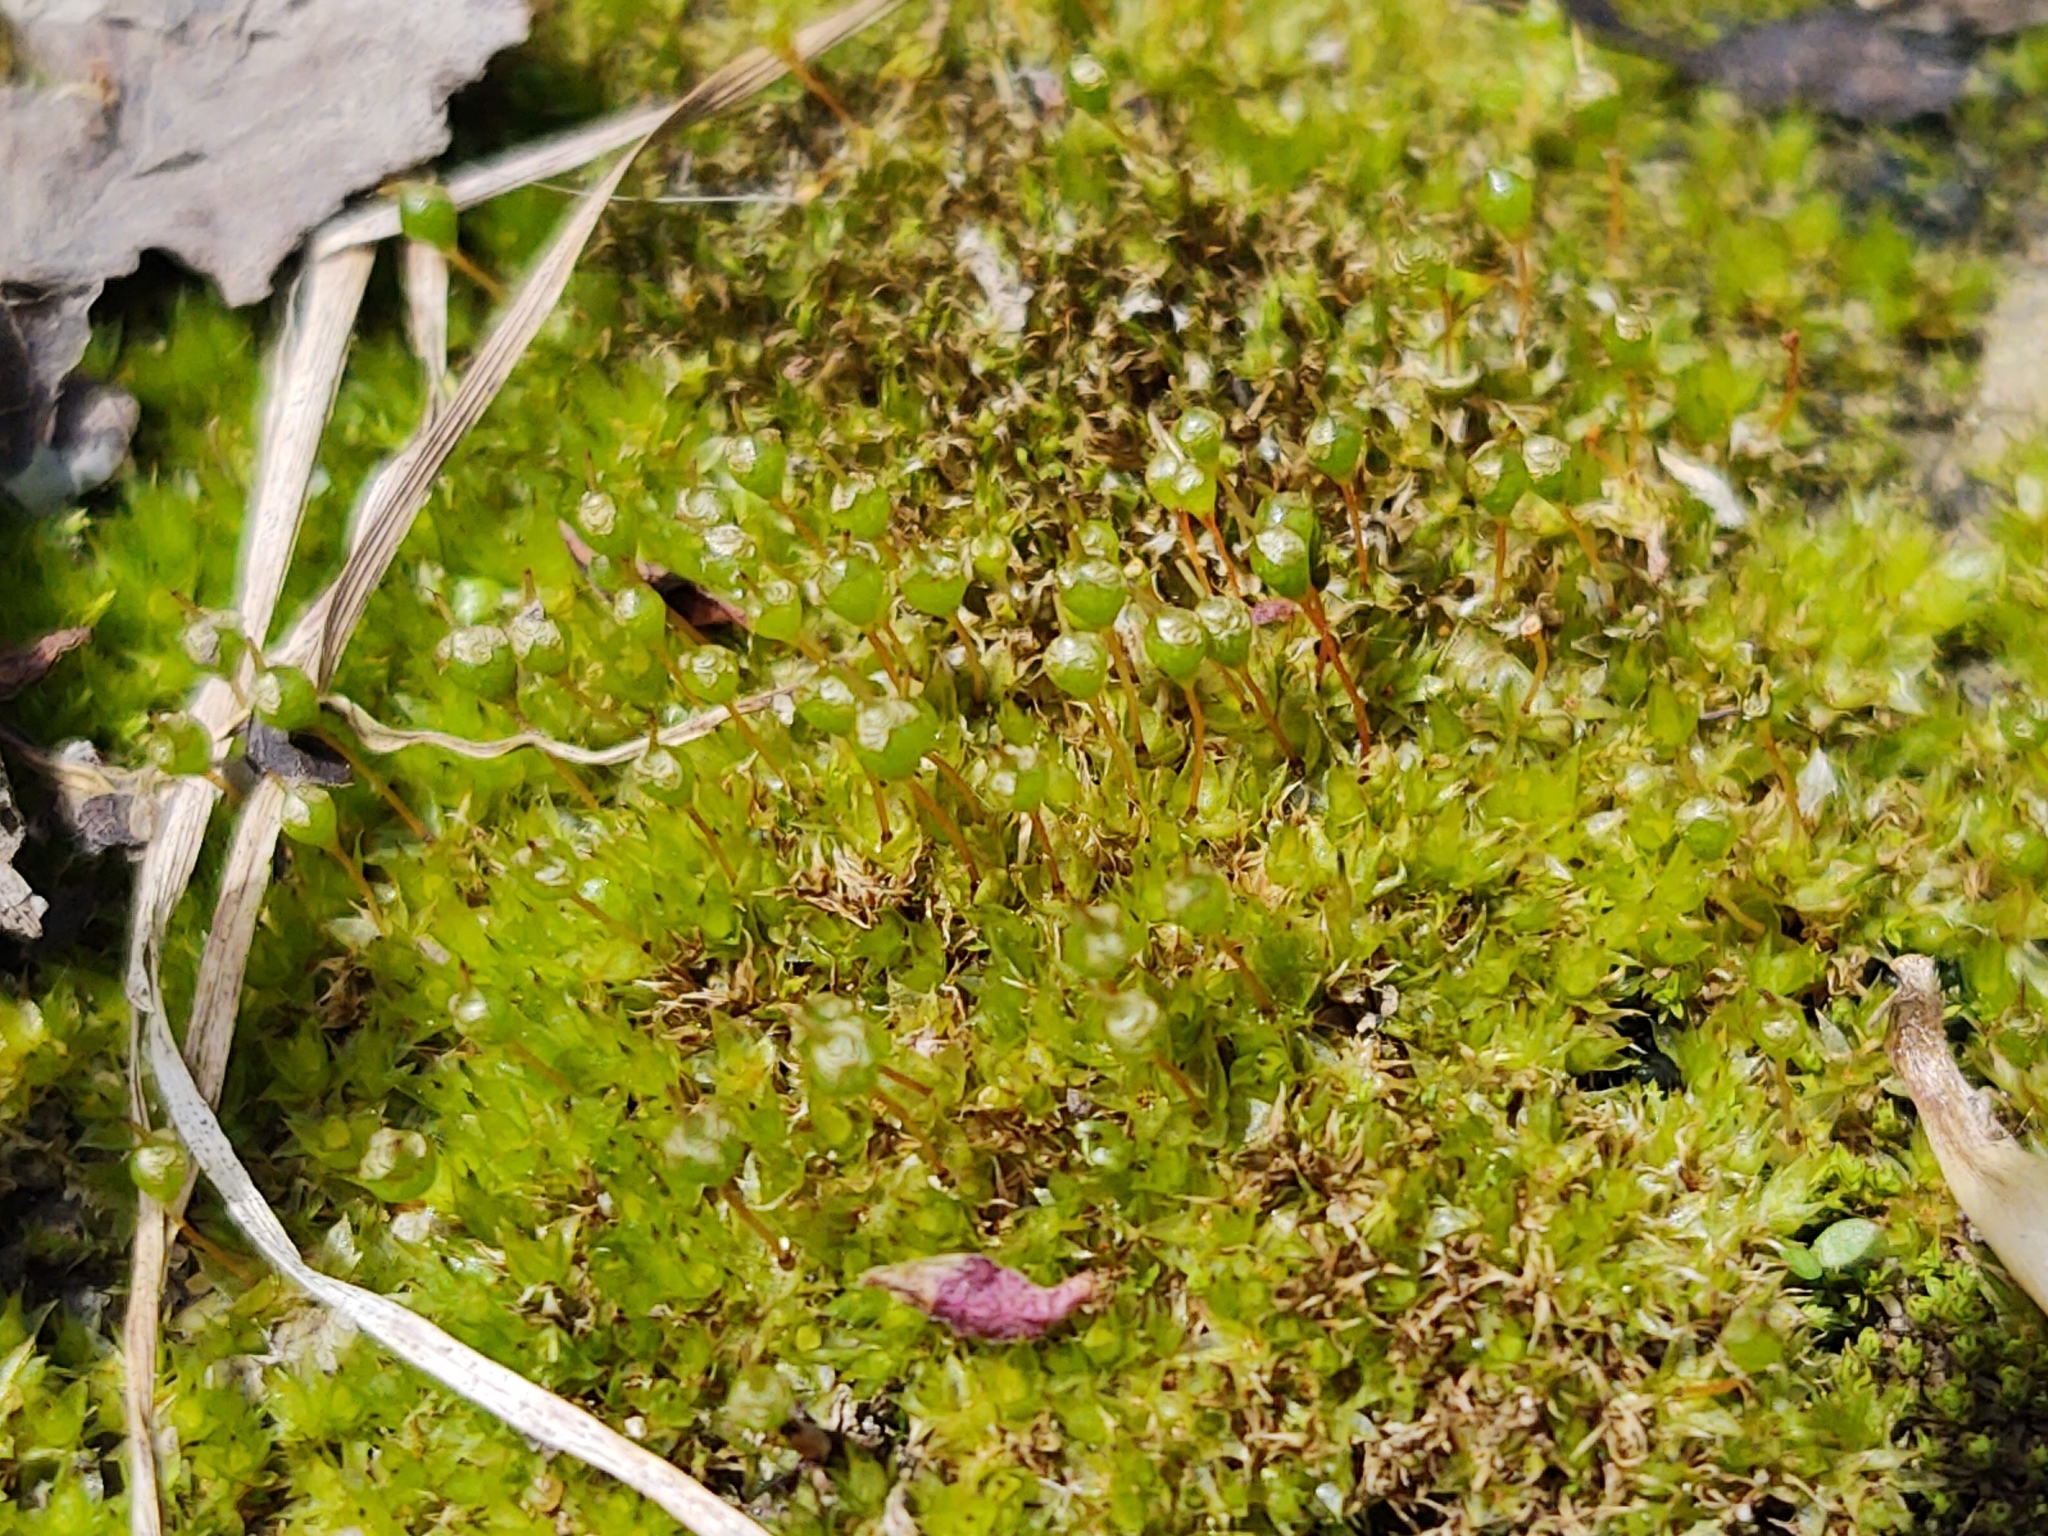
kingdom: Plantae
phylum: Bryophyta
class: Bryopsida
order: Funariales
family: Funariaceae
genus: Physcomitrium
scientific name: Physcomitrium pyriforme
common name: Common bladder-moss
